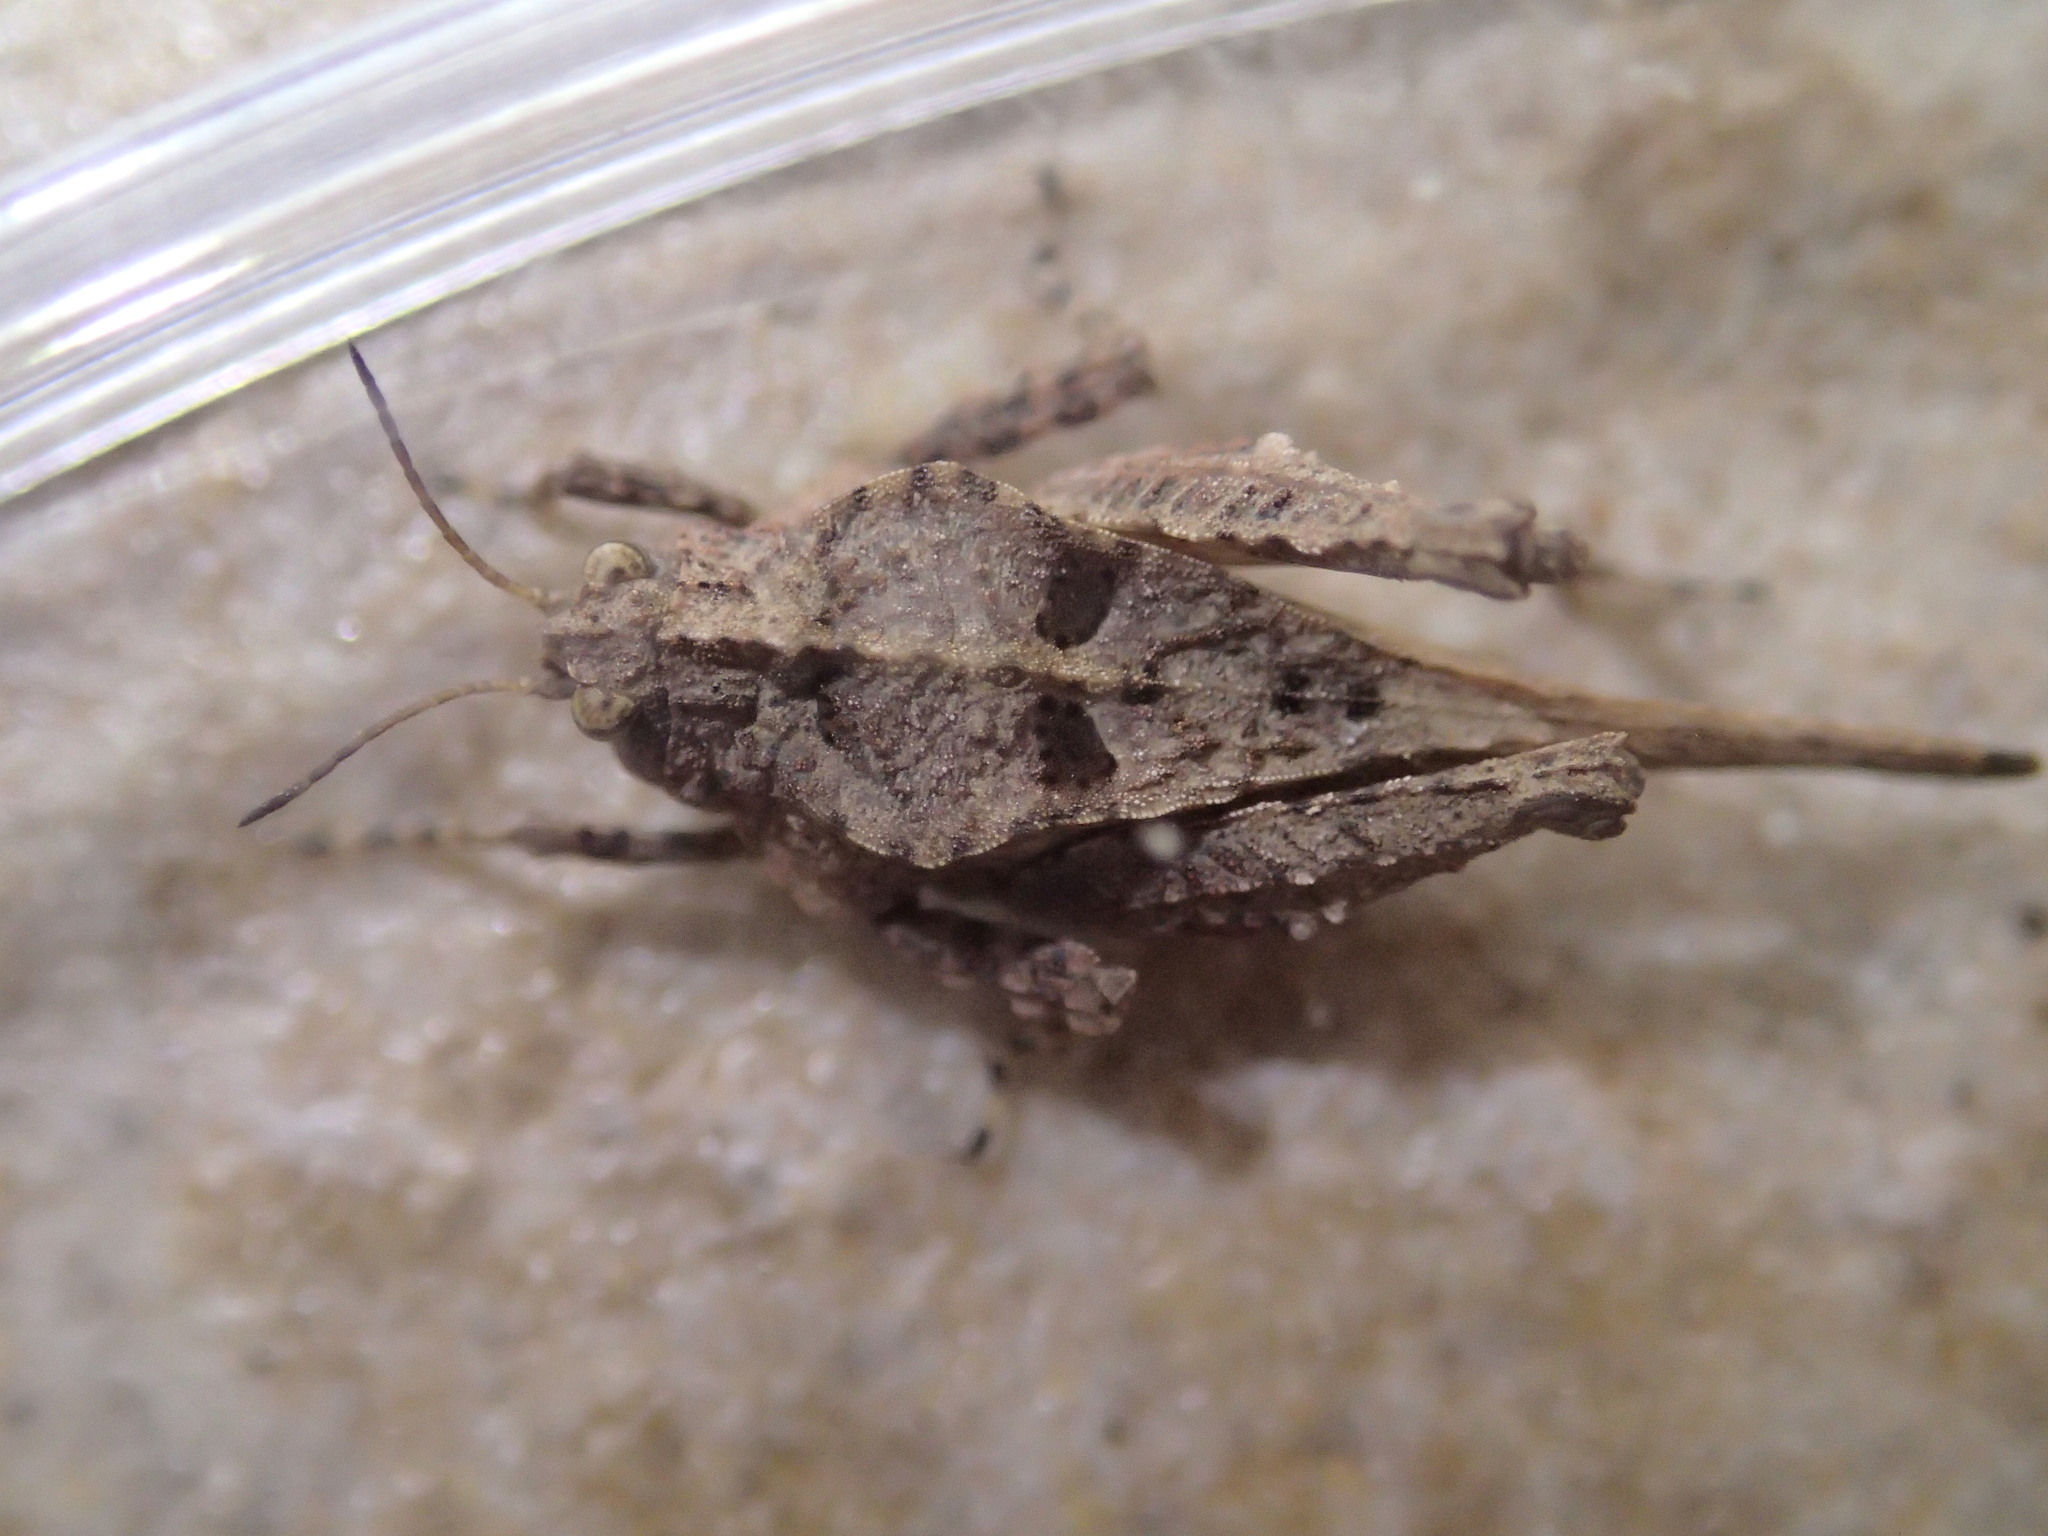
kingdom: Animalia
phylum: Arthropoda
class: Insecta
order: Orthoptera
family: Tetrigidae
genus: Tetrix
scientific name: Tetrix depressa
